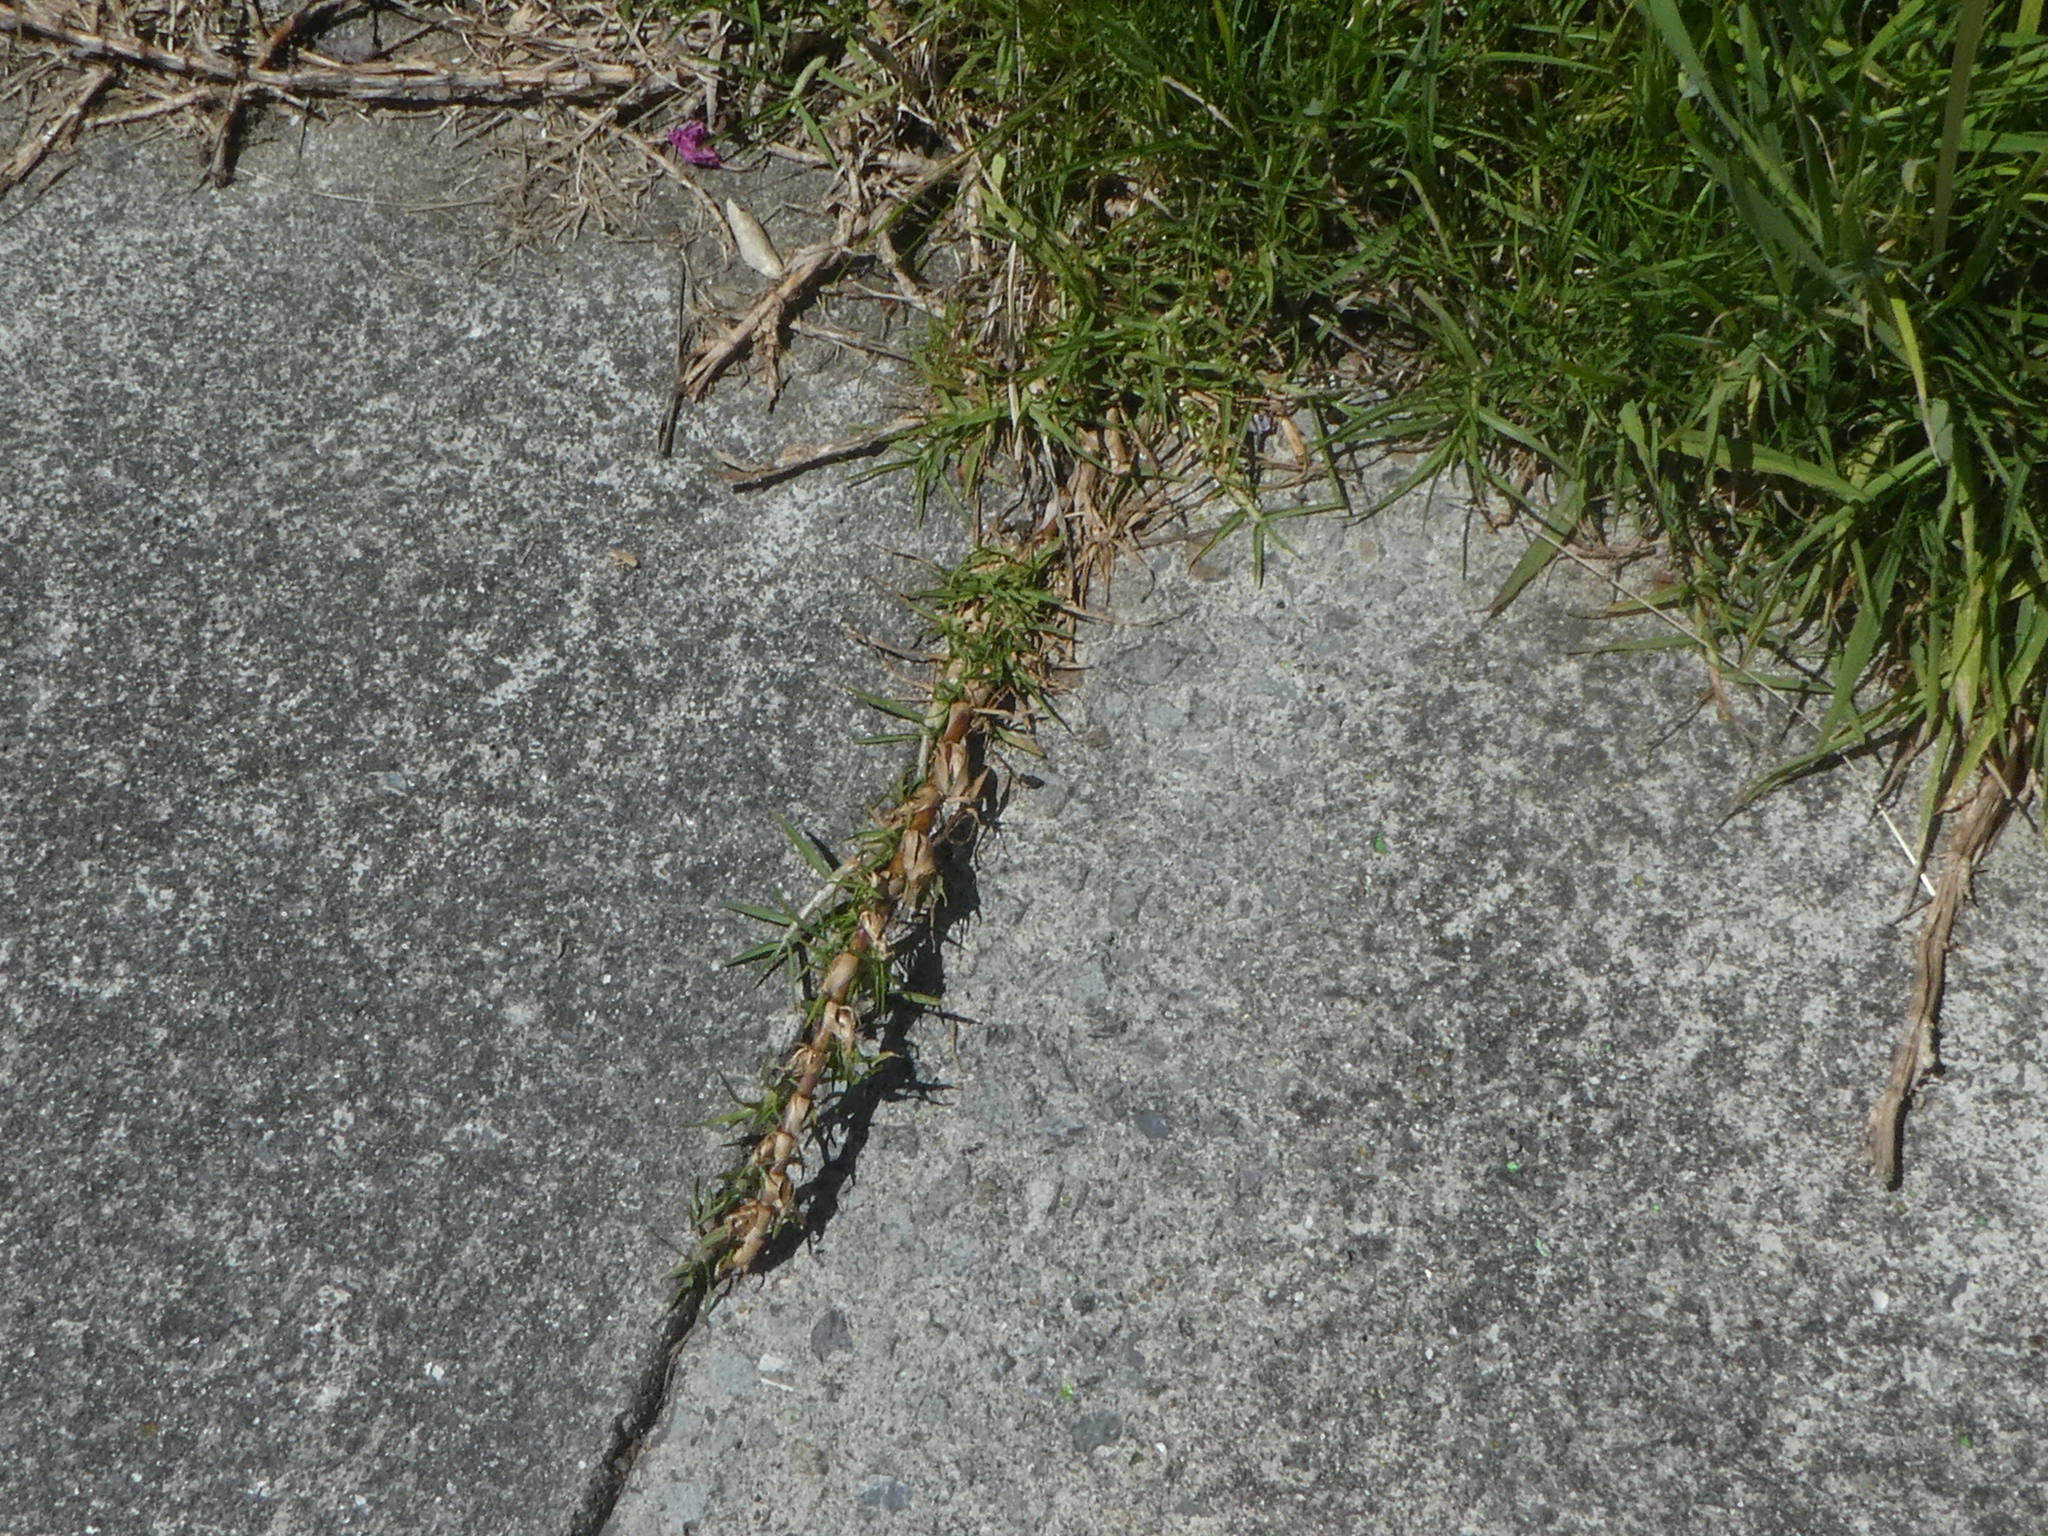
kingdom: Plantae
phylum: Tracheophyta
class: Liliopsida
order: Poales
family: Poaceae
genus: Cenchrus
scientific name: Cenchrus clandestinus
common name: Kikuyugrass
